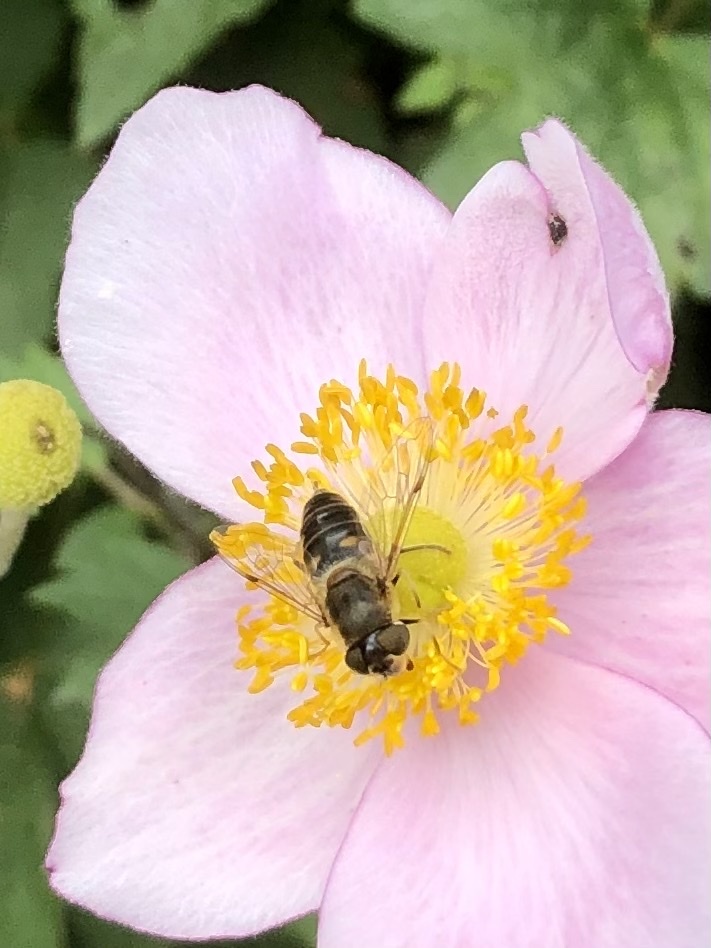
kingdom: Animalia
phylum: Arthropoda
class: Insecta
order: Diptera
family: Syrphidae
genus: Eristalis
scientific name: Eristalis pertinax
